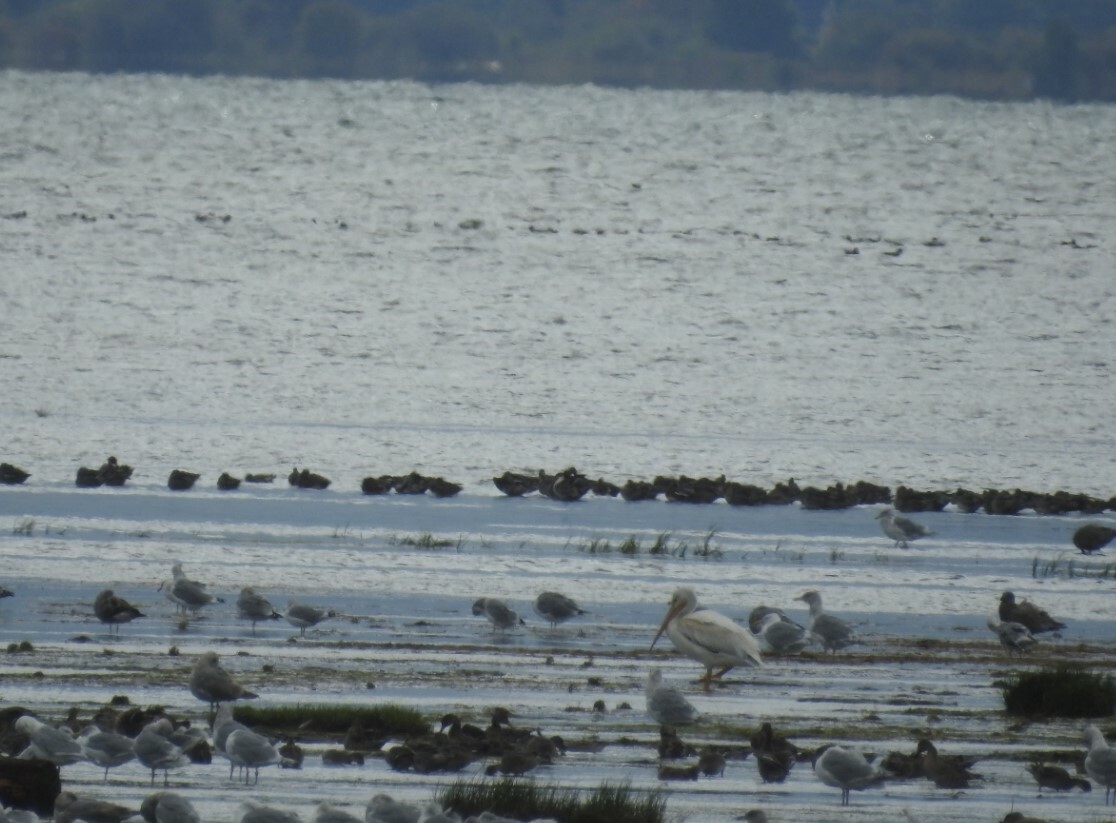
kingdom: Animalia
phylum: Chordata
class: Aves
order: Pelecaniformes
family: Pelecanidae
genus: Pelecanus
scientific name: Pelecanus erythrorhynchos
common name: American white pelican
